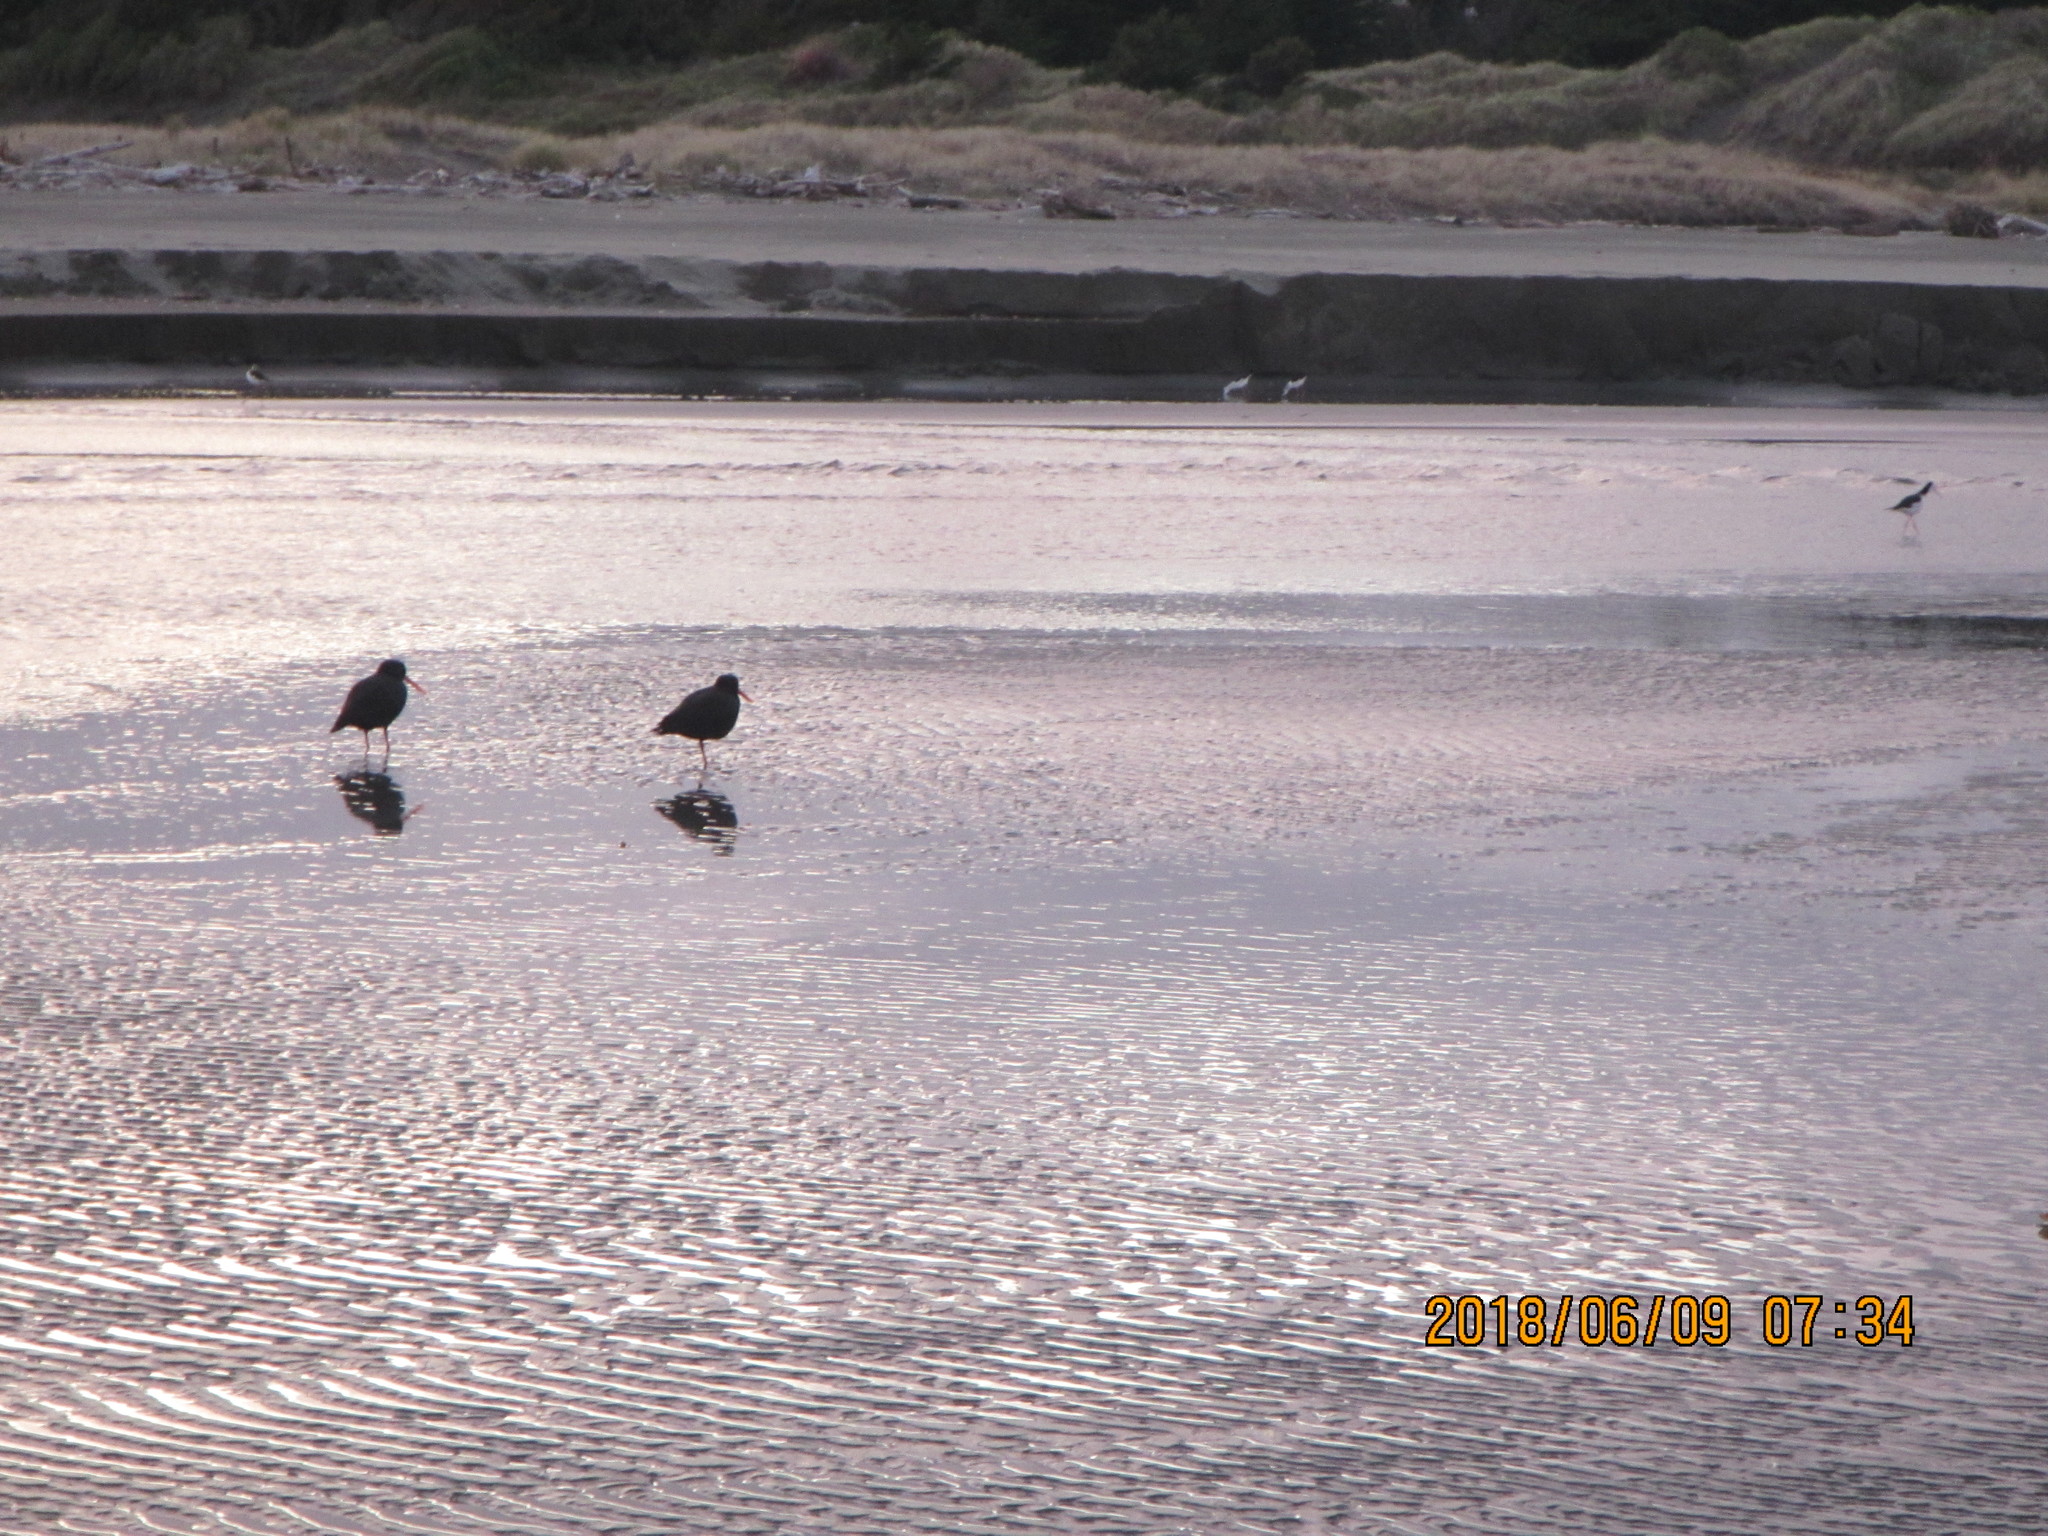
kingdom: Animalia
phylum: Chordata
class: Aves
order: Charadriiformes
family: Haematopodidae
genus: Haematopus
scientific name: Haematopus unicolor
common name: Variable oystercatcher
